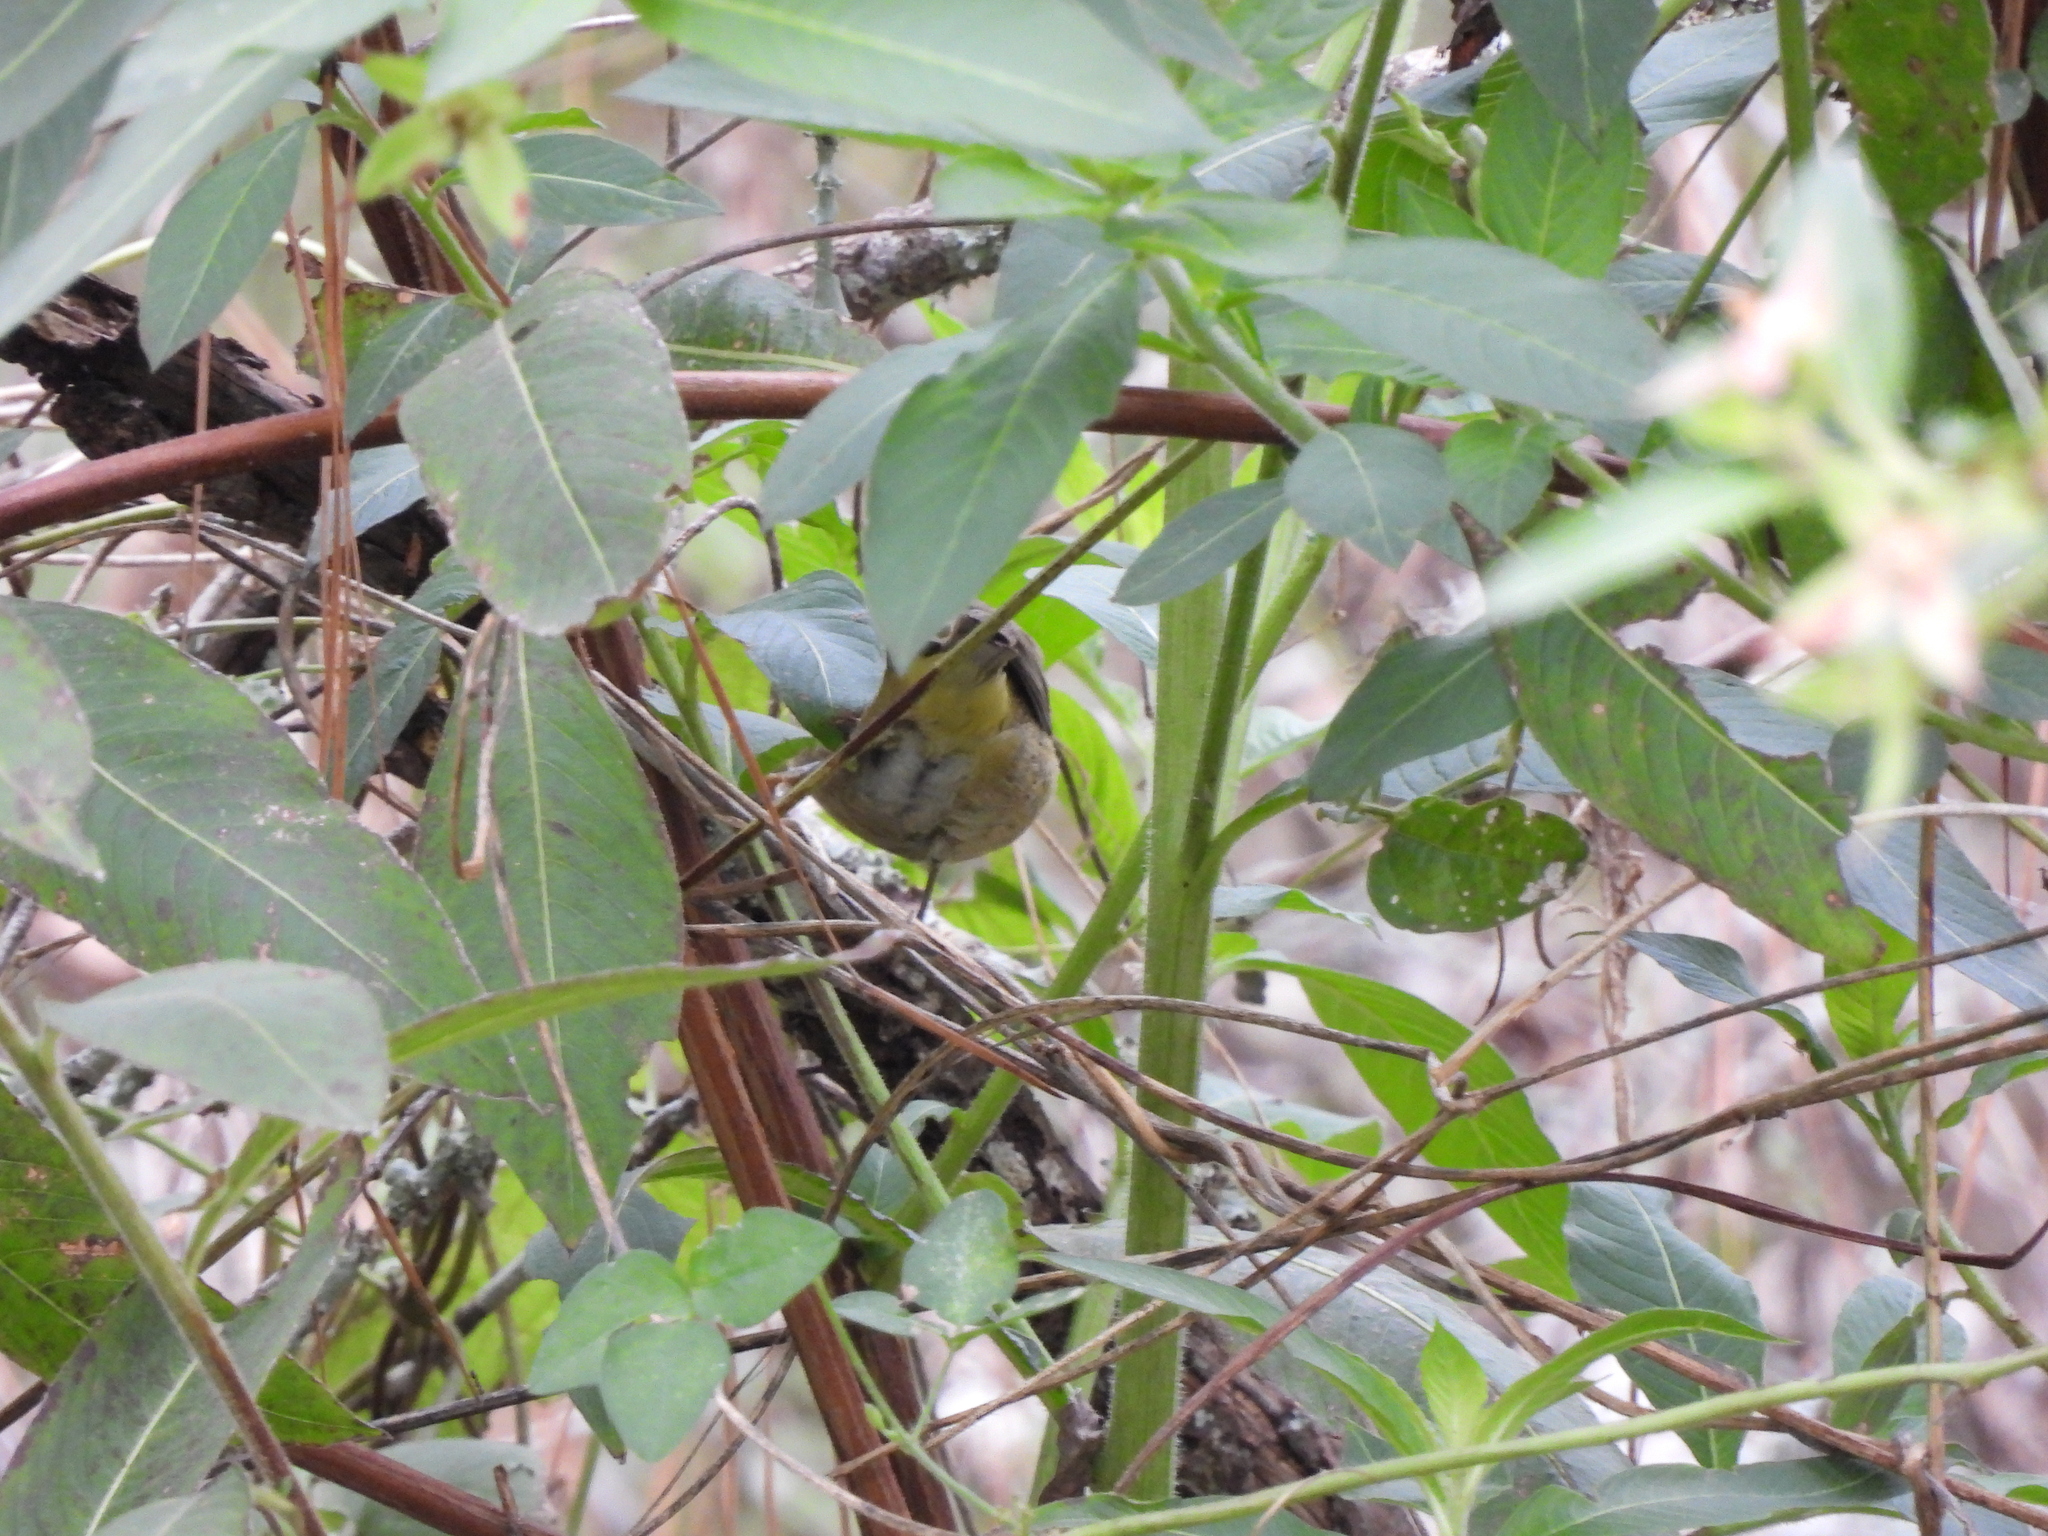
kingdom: Animalia
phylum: Chordata
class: Aves
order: Passeriformes
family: Parulidae
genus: Leiothlypis
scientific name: Leiothlypis celata
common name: Orange-crowned warbler
